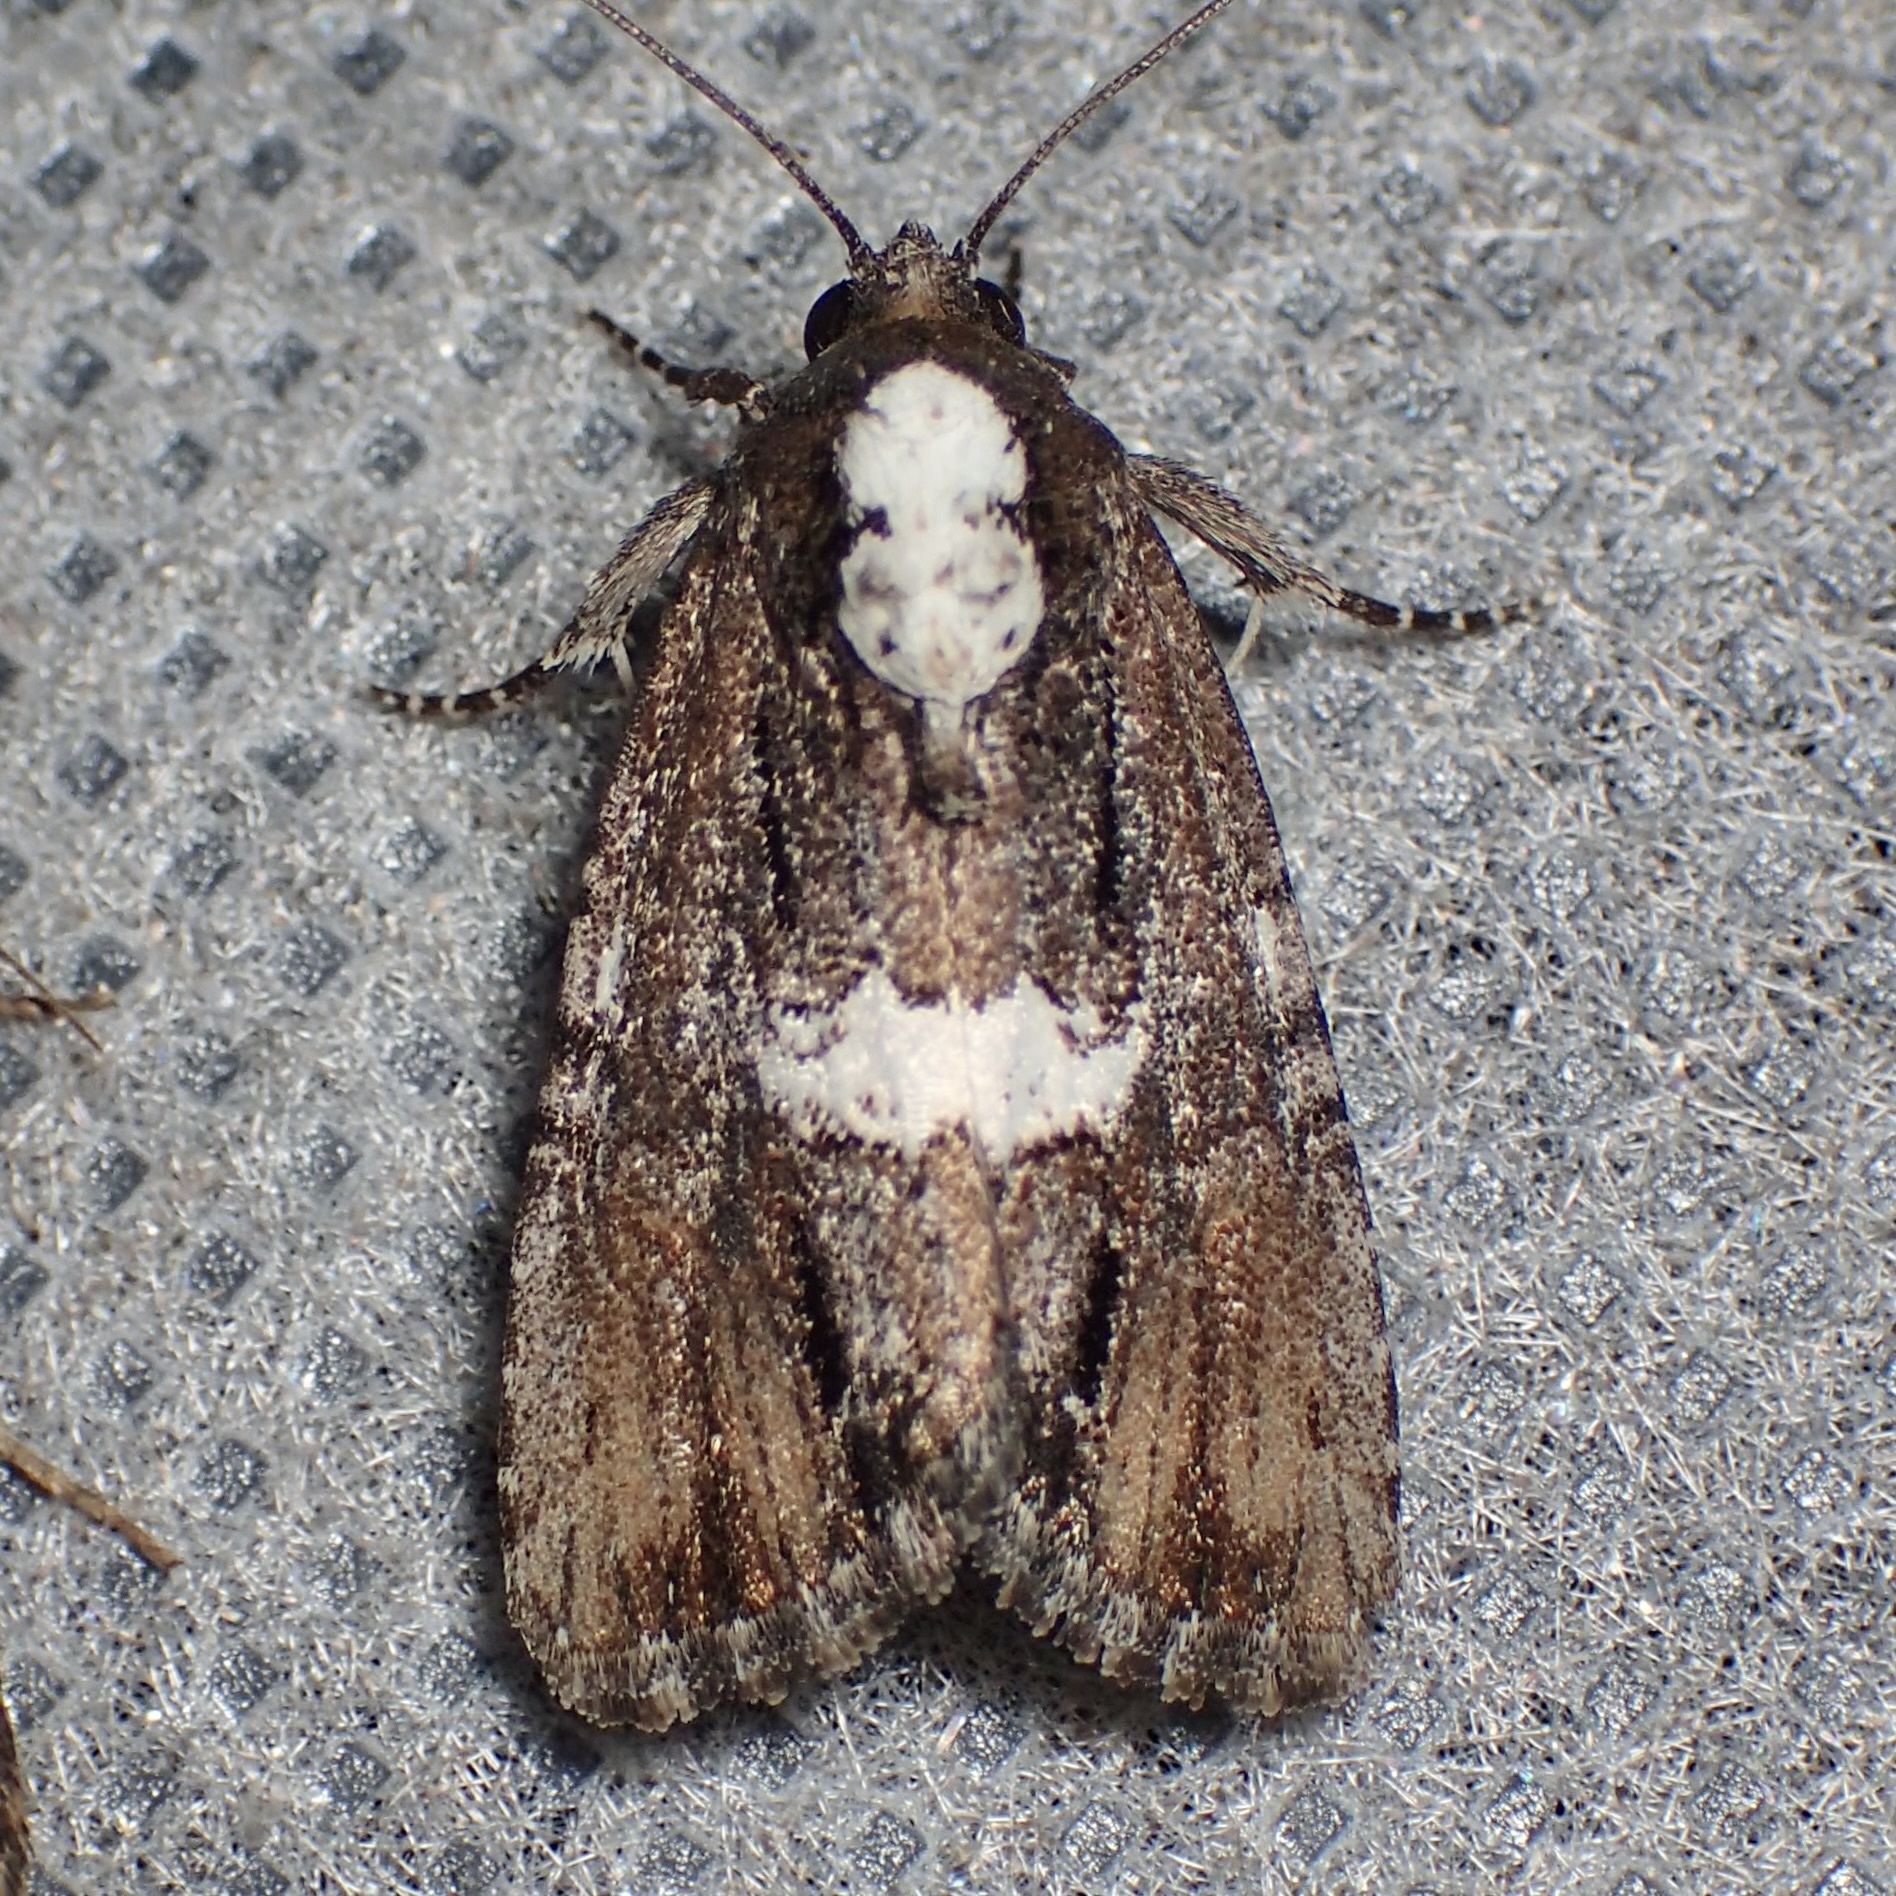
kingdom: Animalia
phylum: Arthropoda
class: Insecta
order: Lepidoptera
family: Noctuidae
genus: Bryolymnia
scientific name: Bryolymnia semifascia
